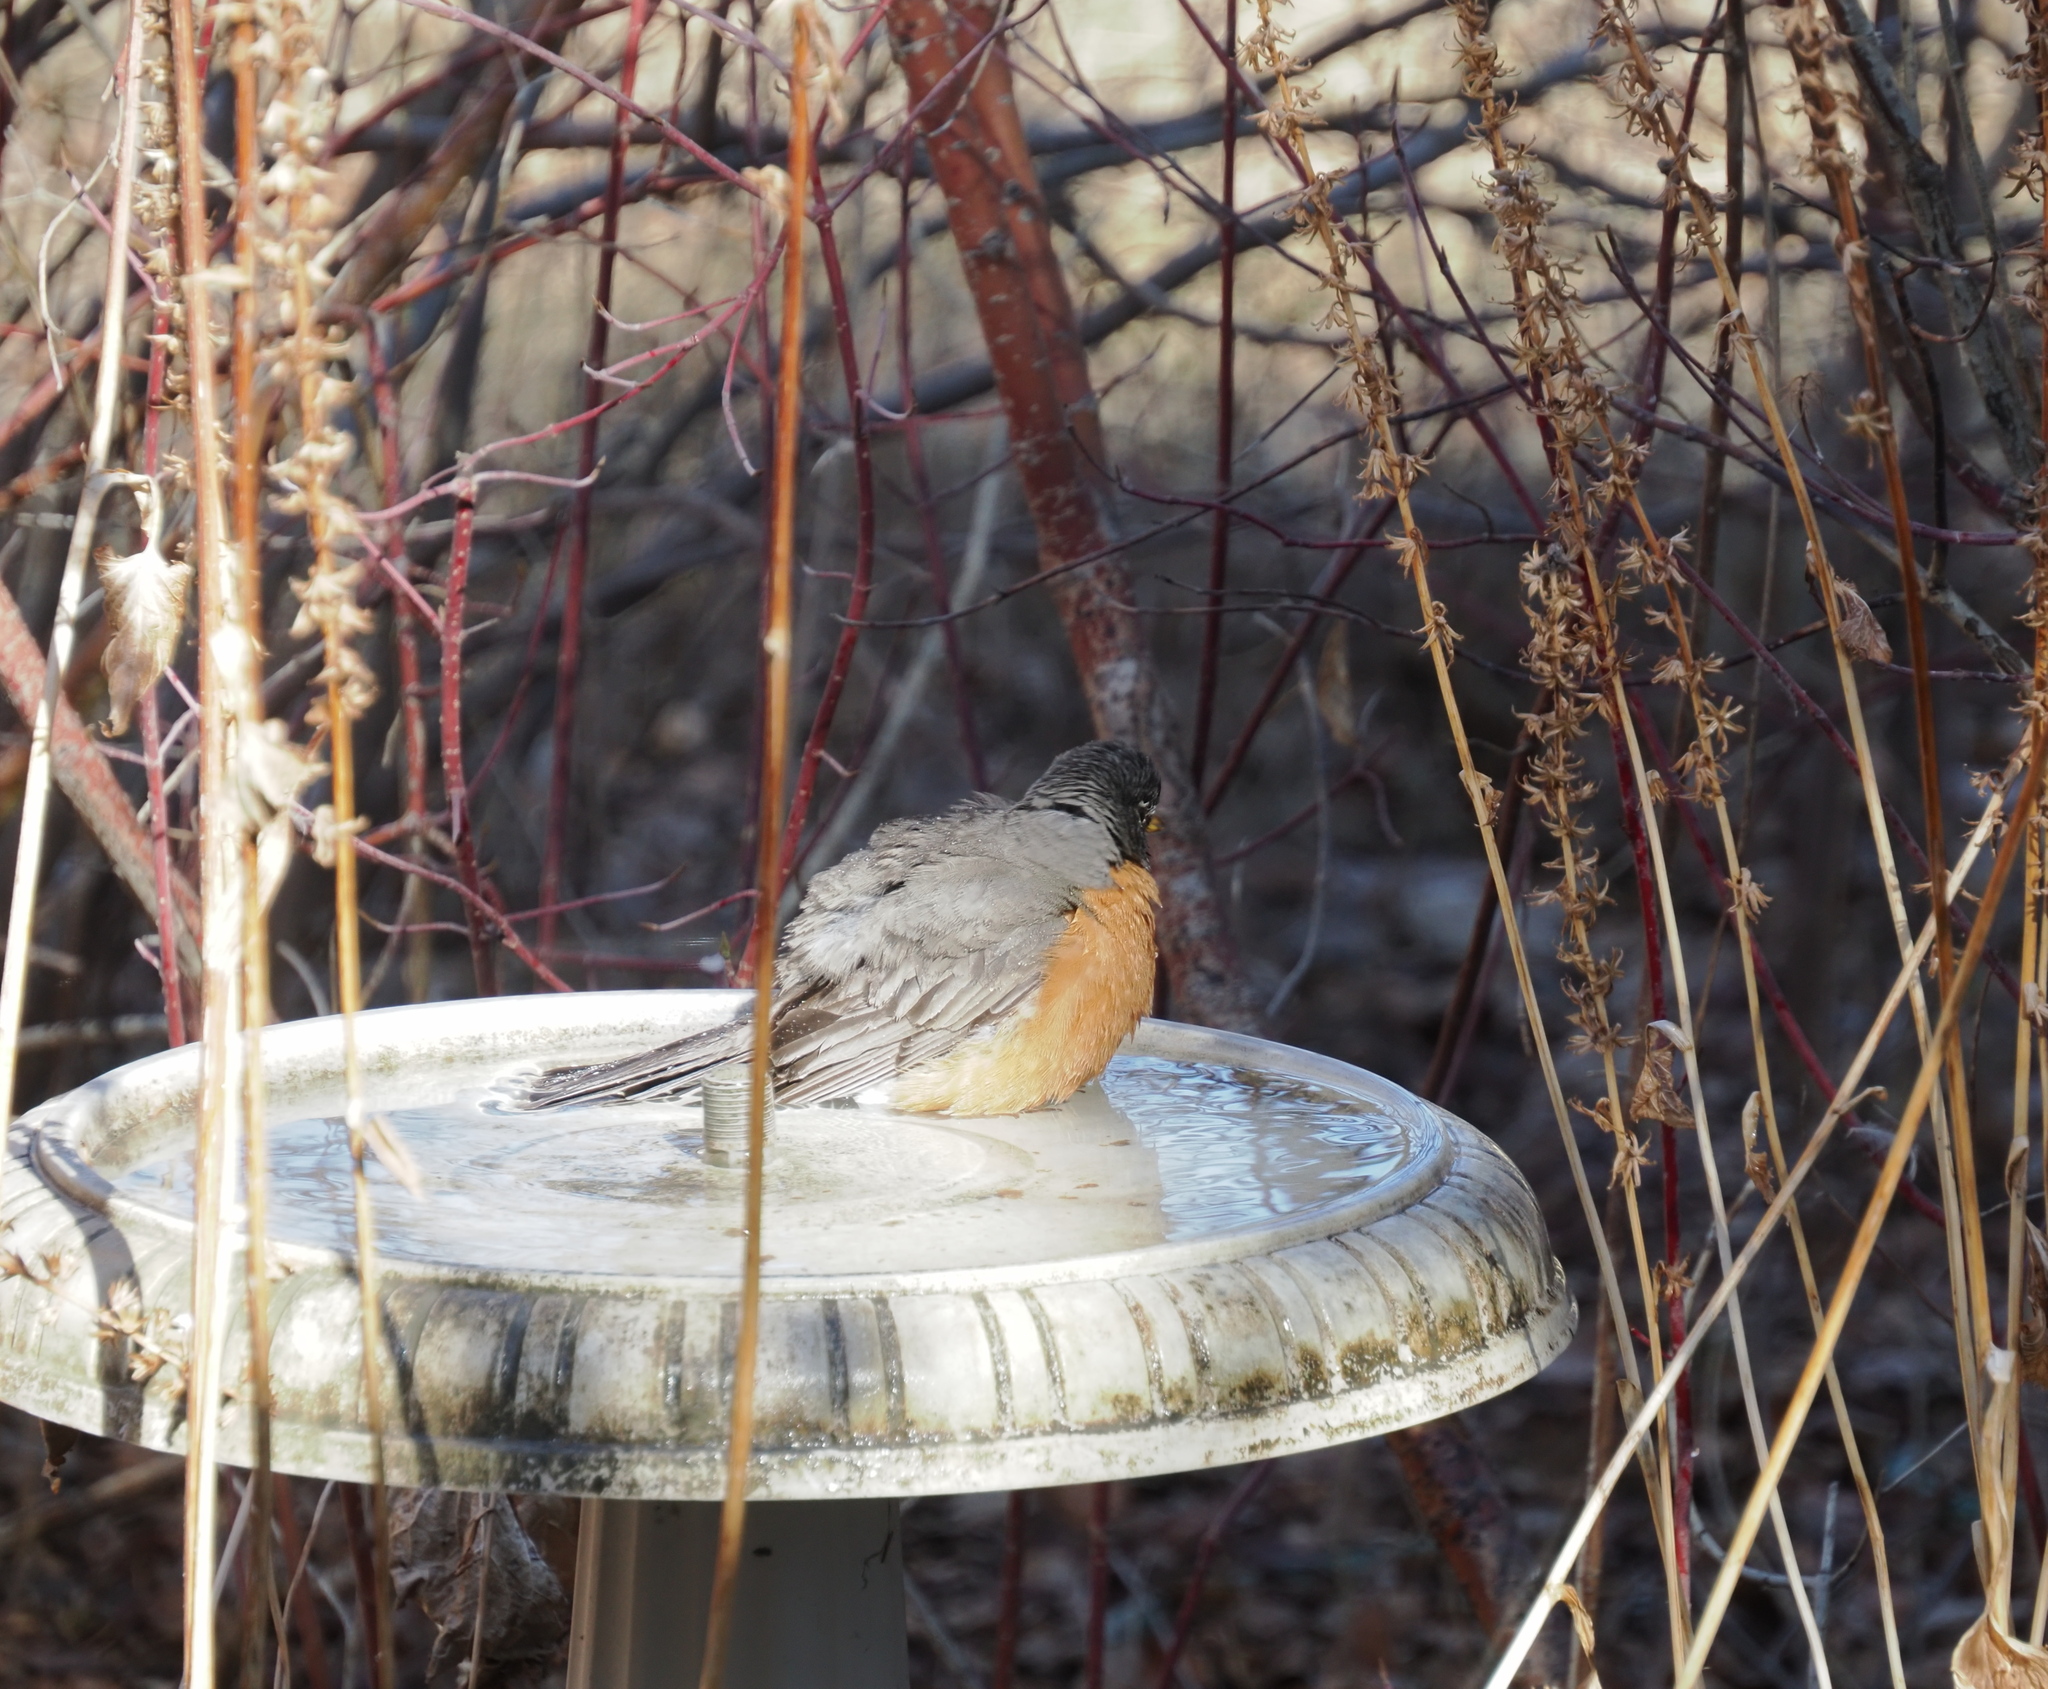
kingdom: Animalia
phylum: Chordata
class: Aves
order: Passeriformes
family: Turdidae
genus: Turdus
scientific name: Turdus migratorius
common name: American robin
